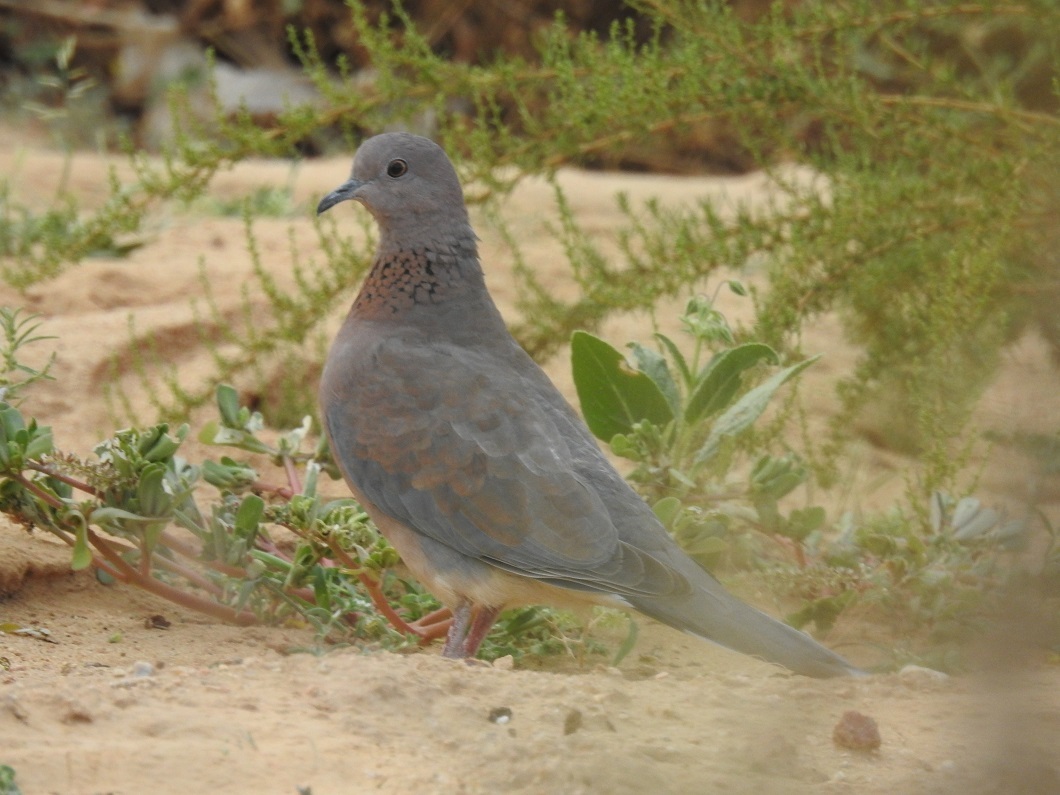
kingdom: Animalia
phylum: Chordata
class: Aves
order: Columbiformes
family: Columbidae
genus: Spilopelia
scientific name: Spilopelia senegalensis
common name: Laughing dove
